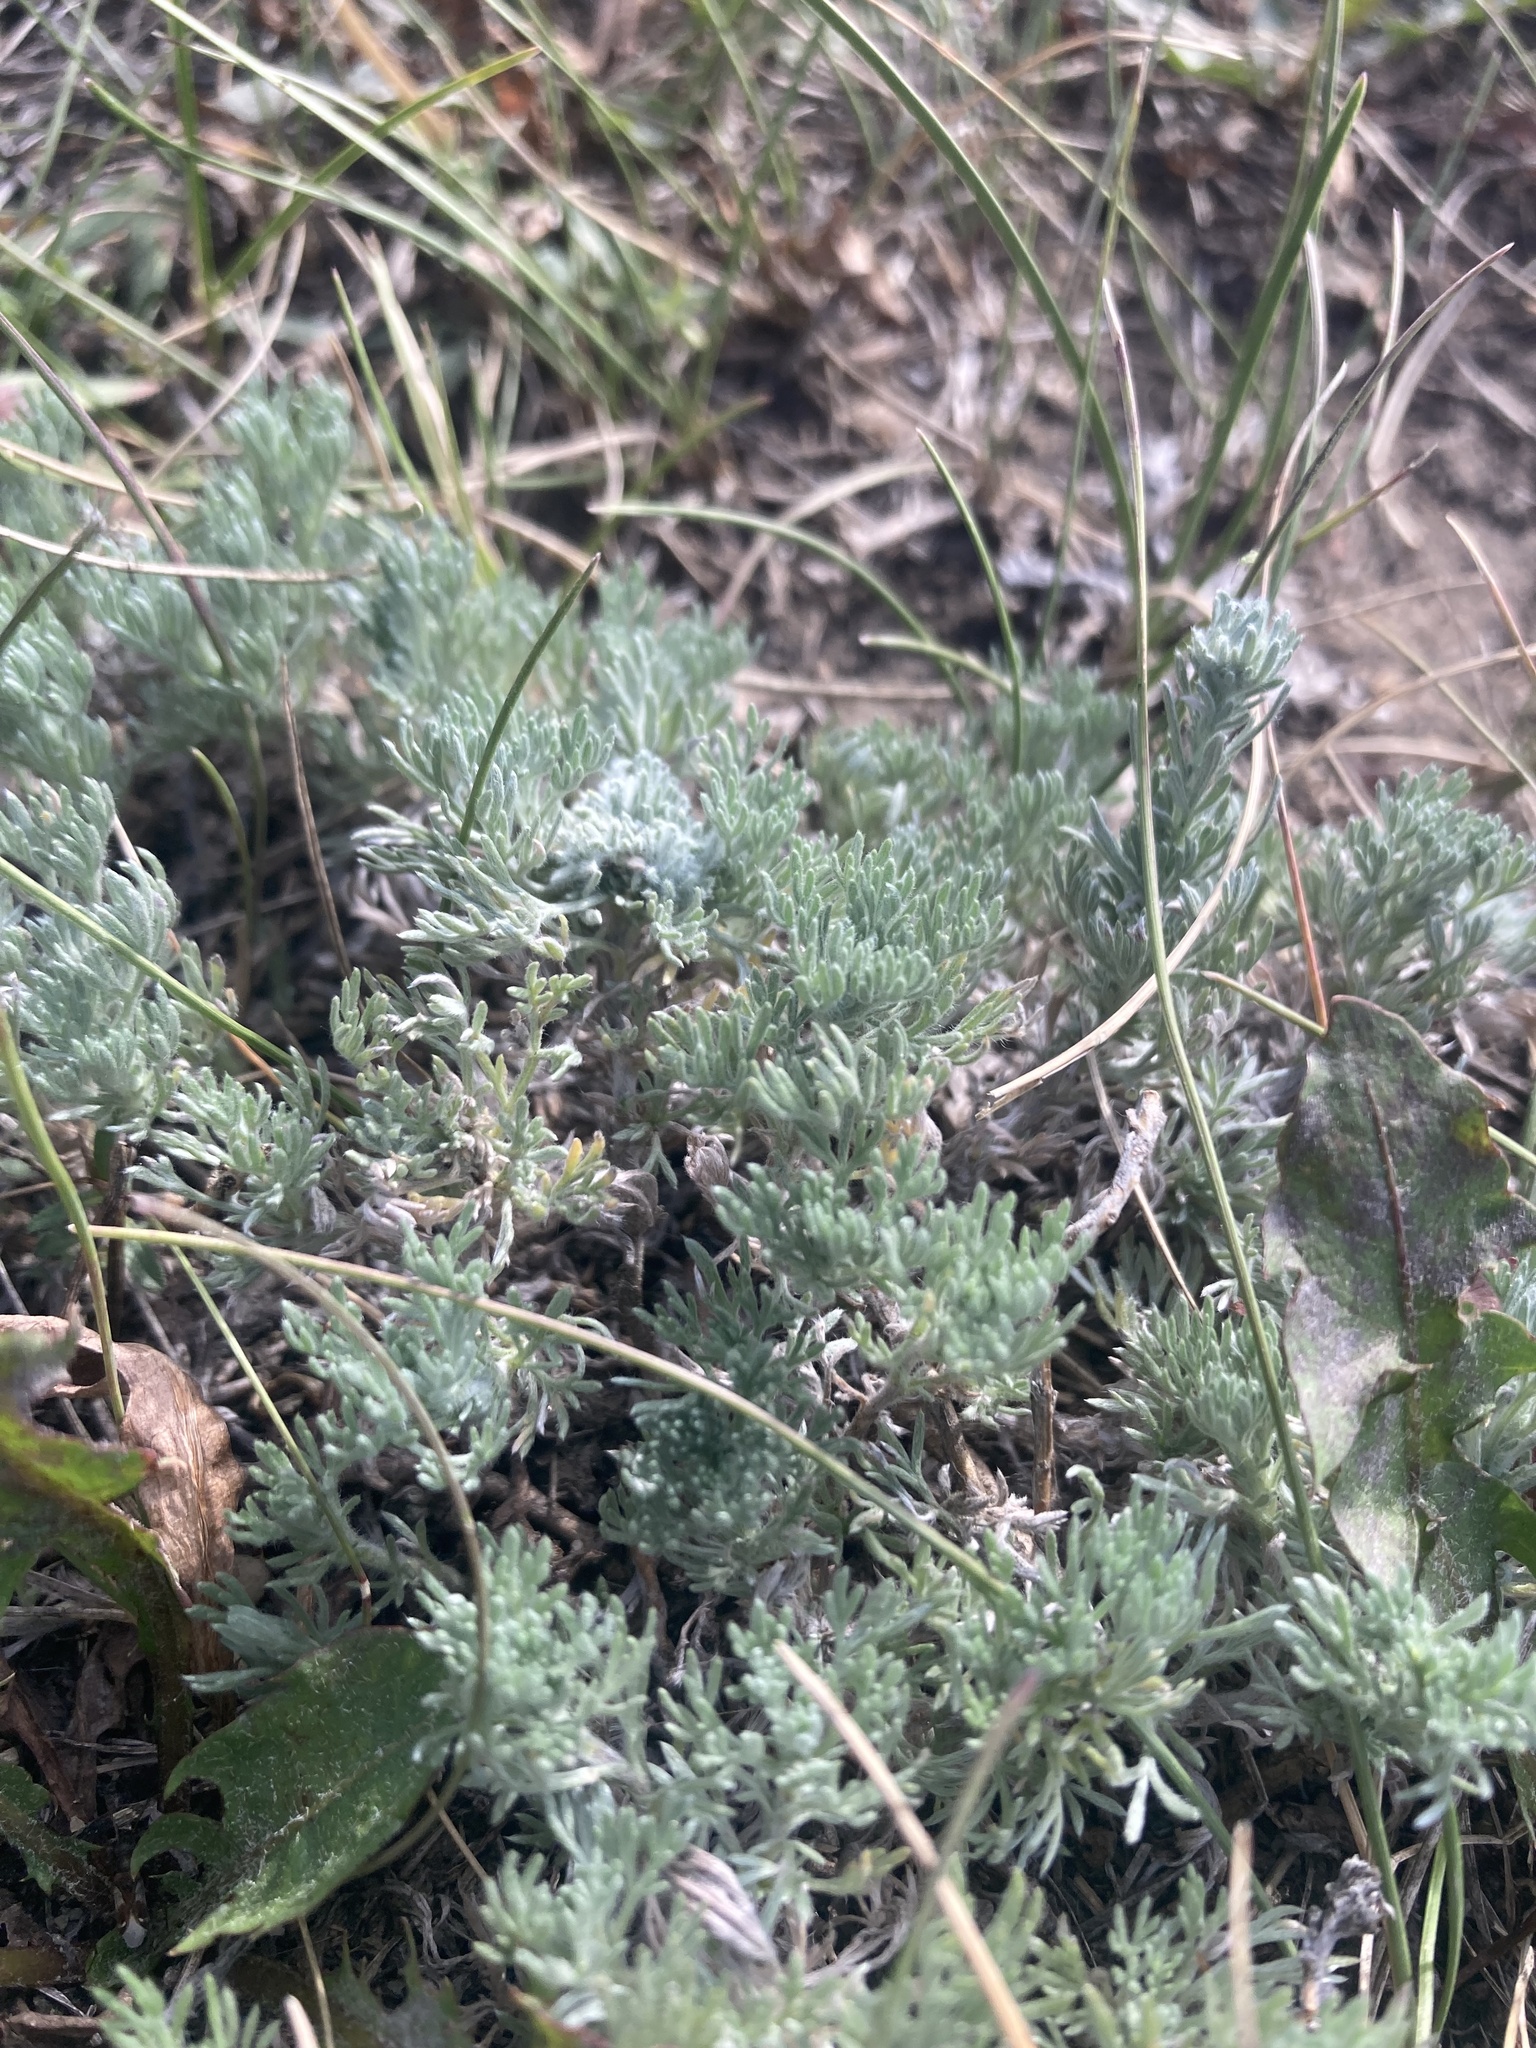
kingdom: Plantae
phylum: Tracheophyta
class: Magnoliopsida
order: Asterales
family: Asteraceae
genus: Artemisia
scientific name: Artemisia frigida
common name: Prairie sagewort
